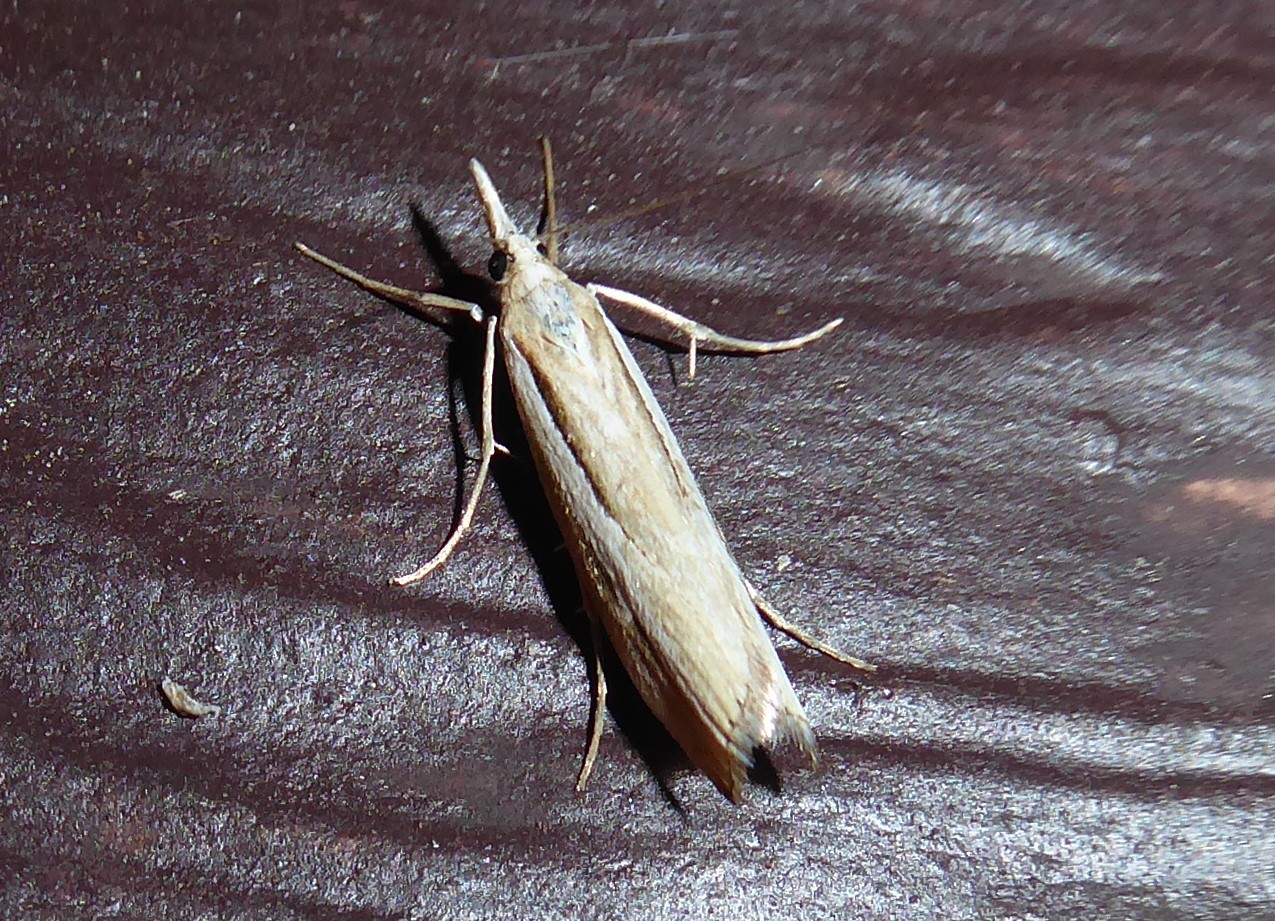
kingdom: Animalia
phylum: Arthropoda
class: Insecta
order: Lepidoptera
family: Crambidae
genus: Orocrambus
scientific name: Orocrambus ramosellus
